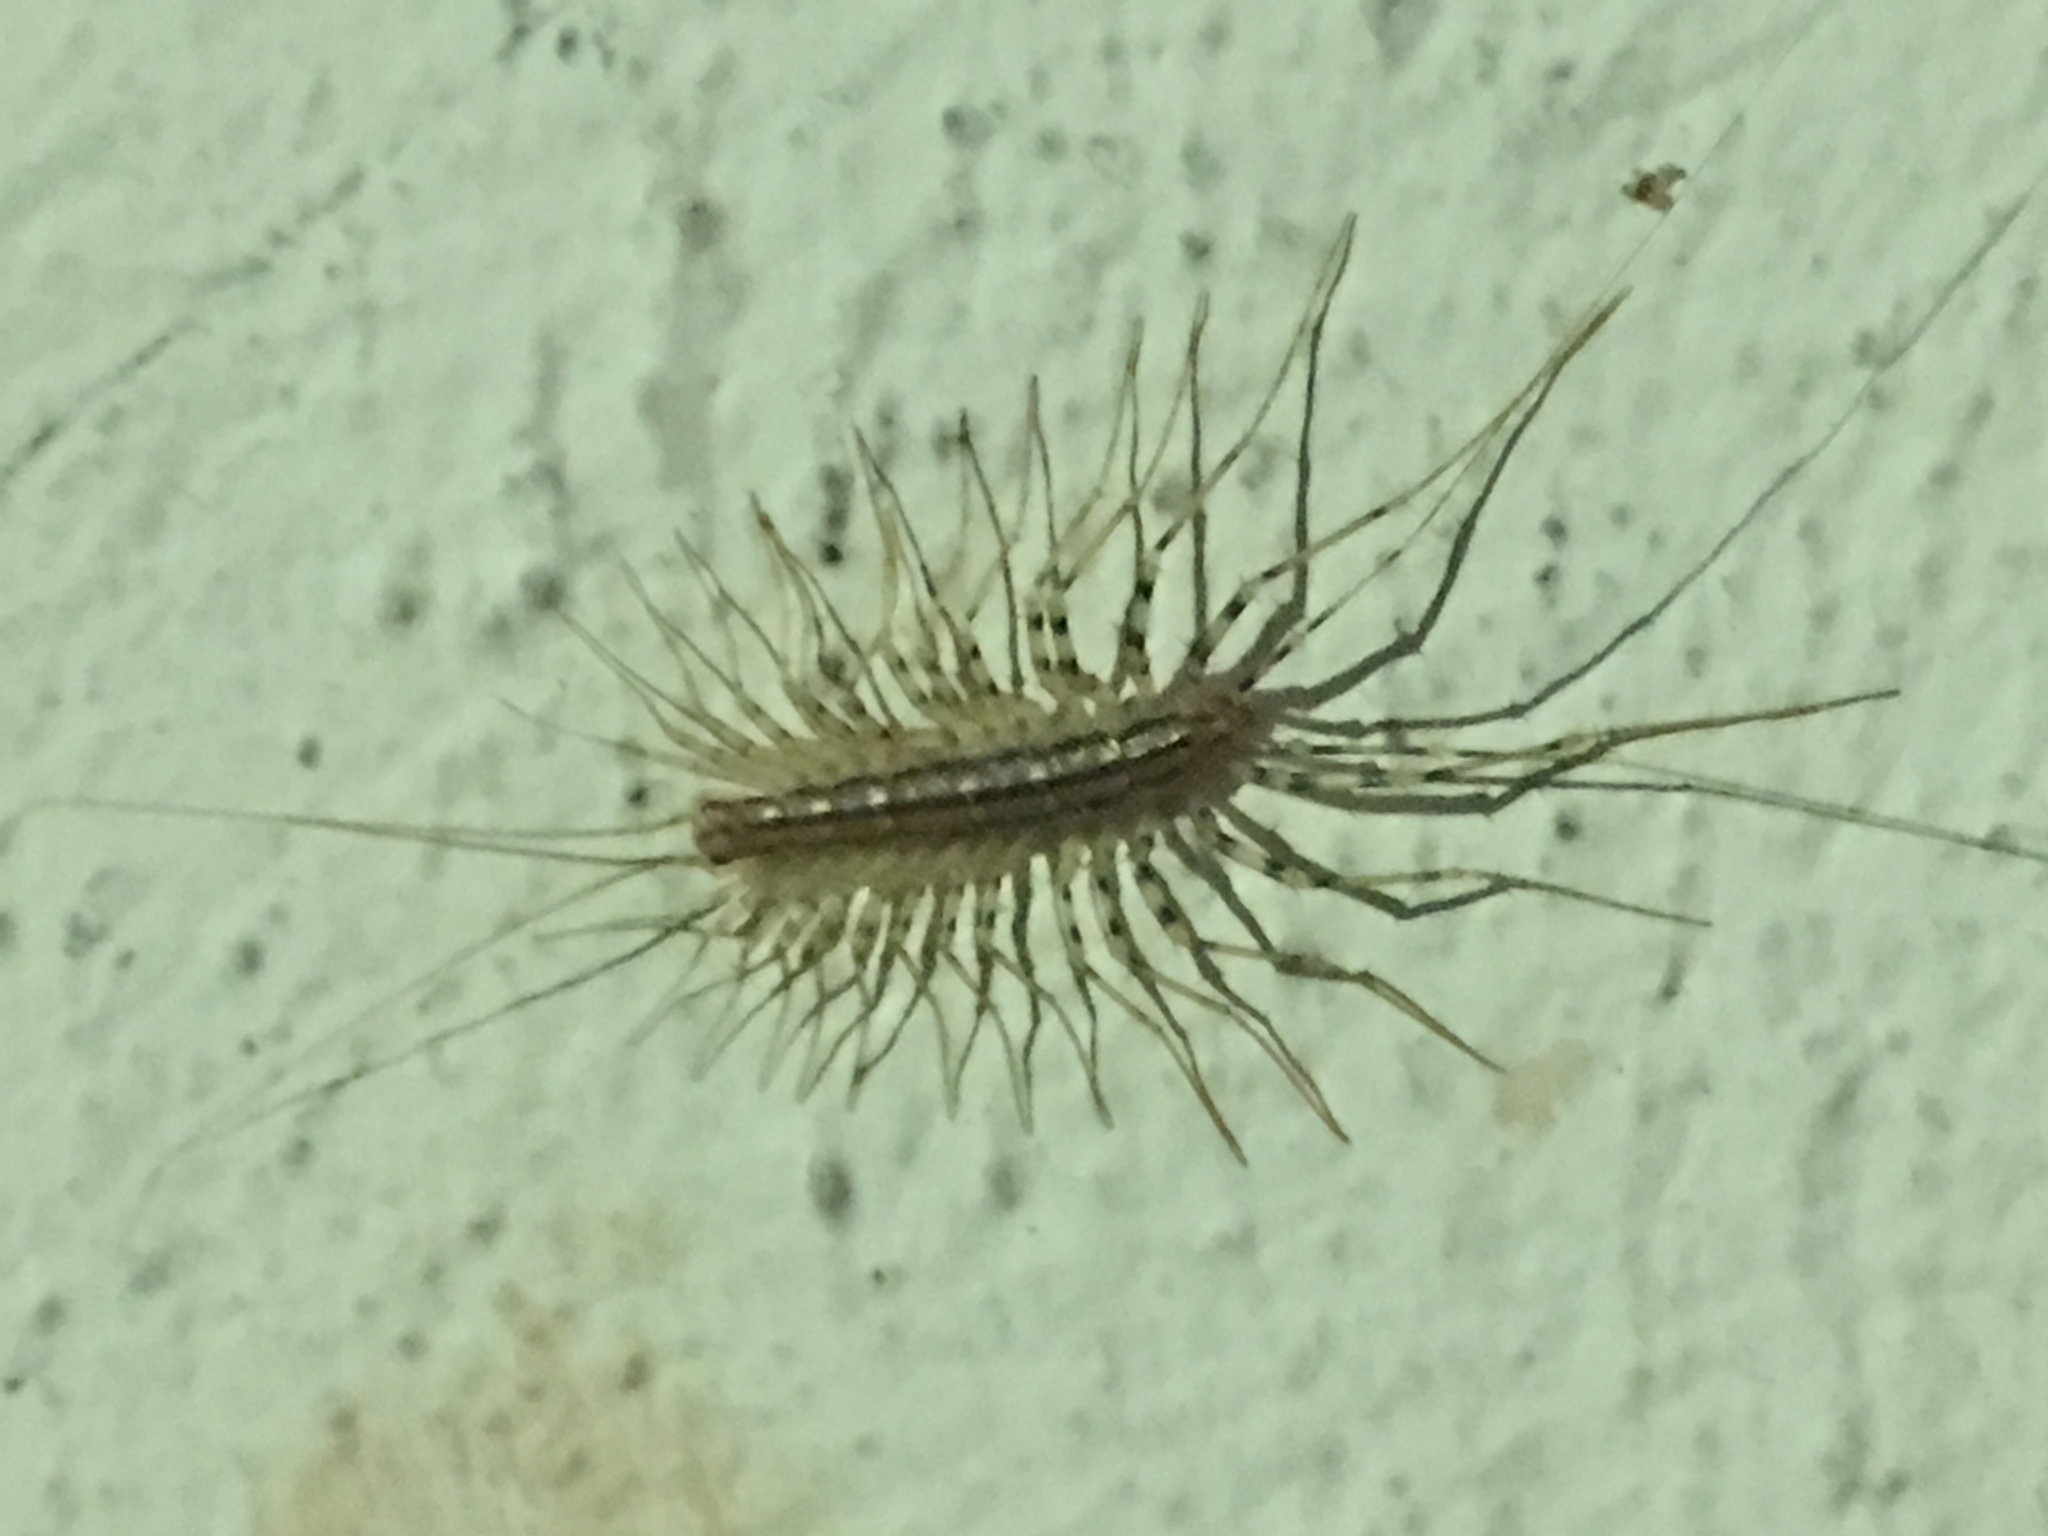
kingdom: Animalia
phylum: Arthropoda
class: Chilopoda
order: Scutigeromorpha
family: Scutigeridae
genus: Scutigera
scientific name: Scutigera coleoptrata
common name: House centipede
